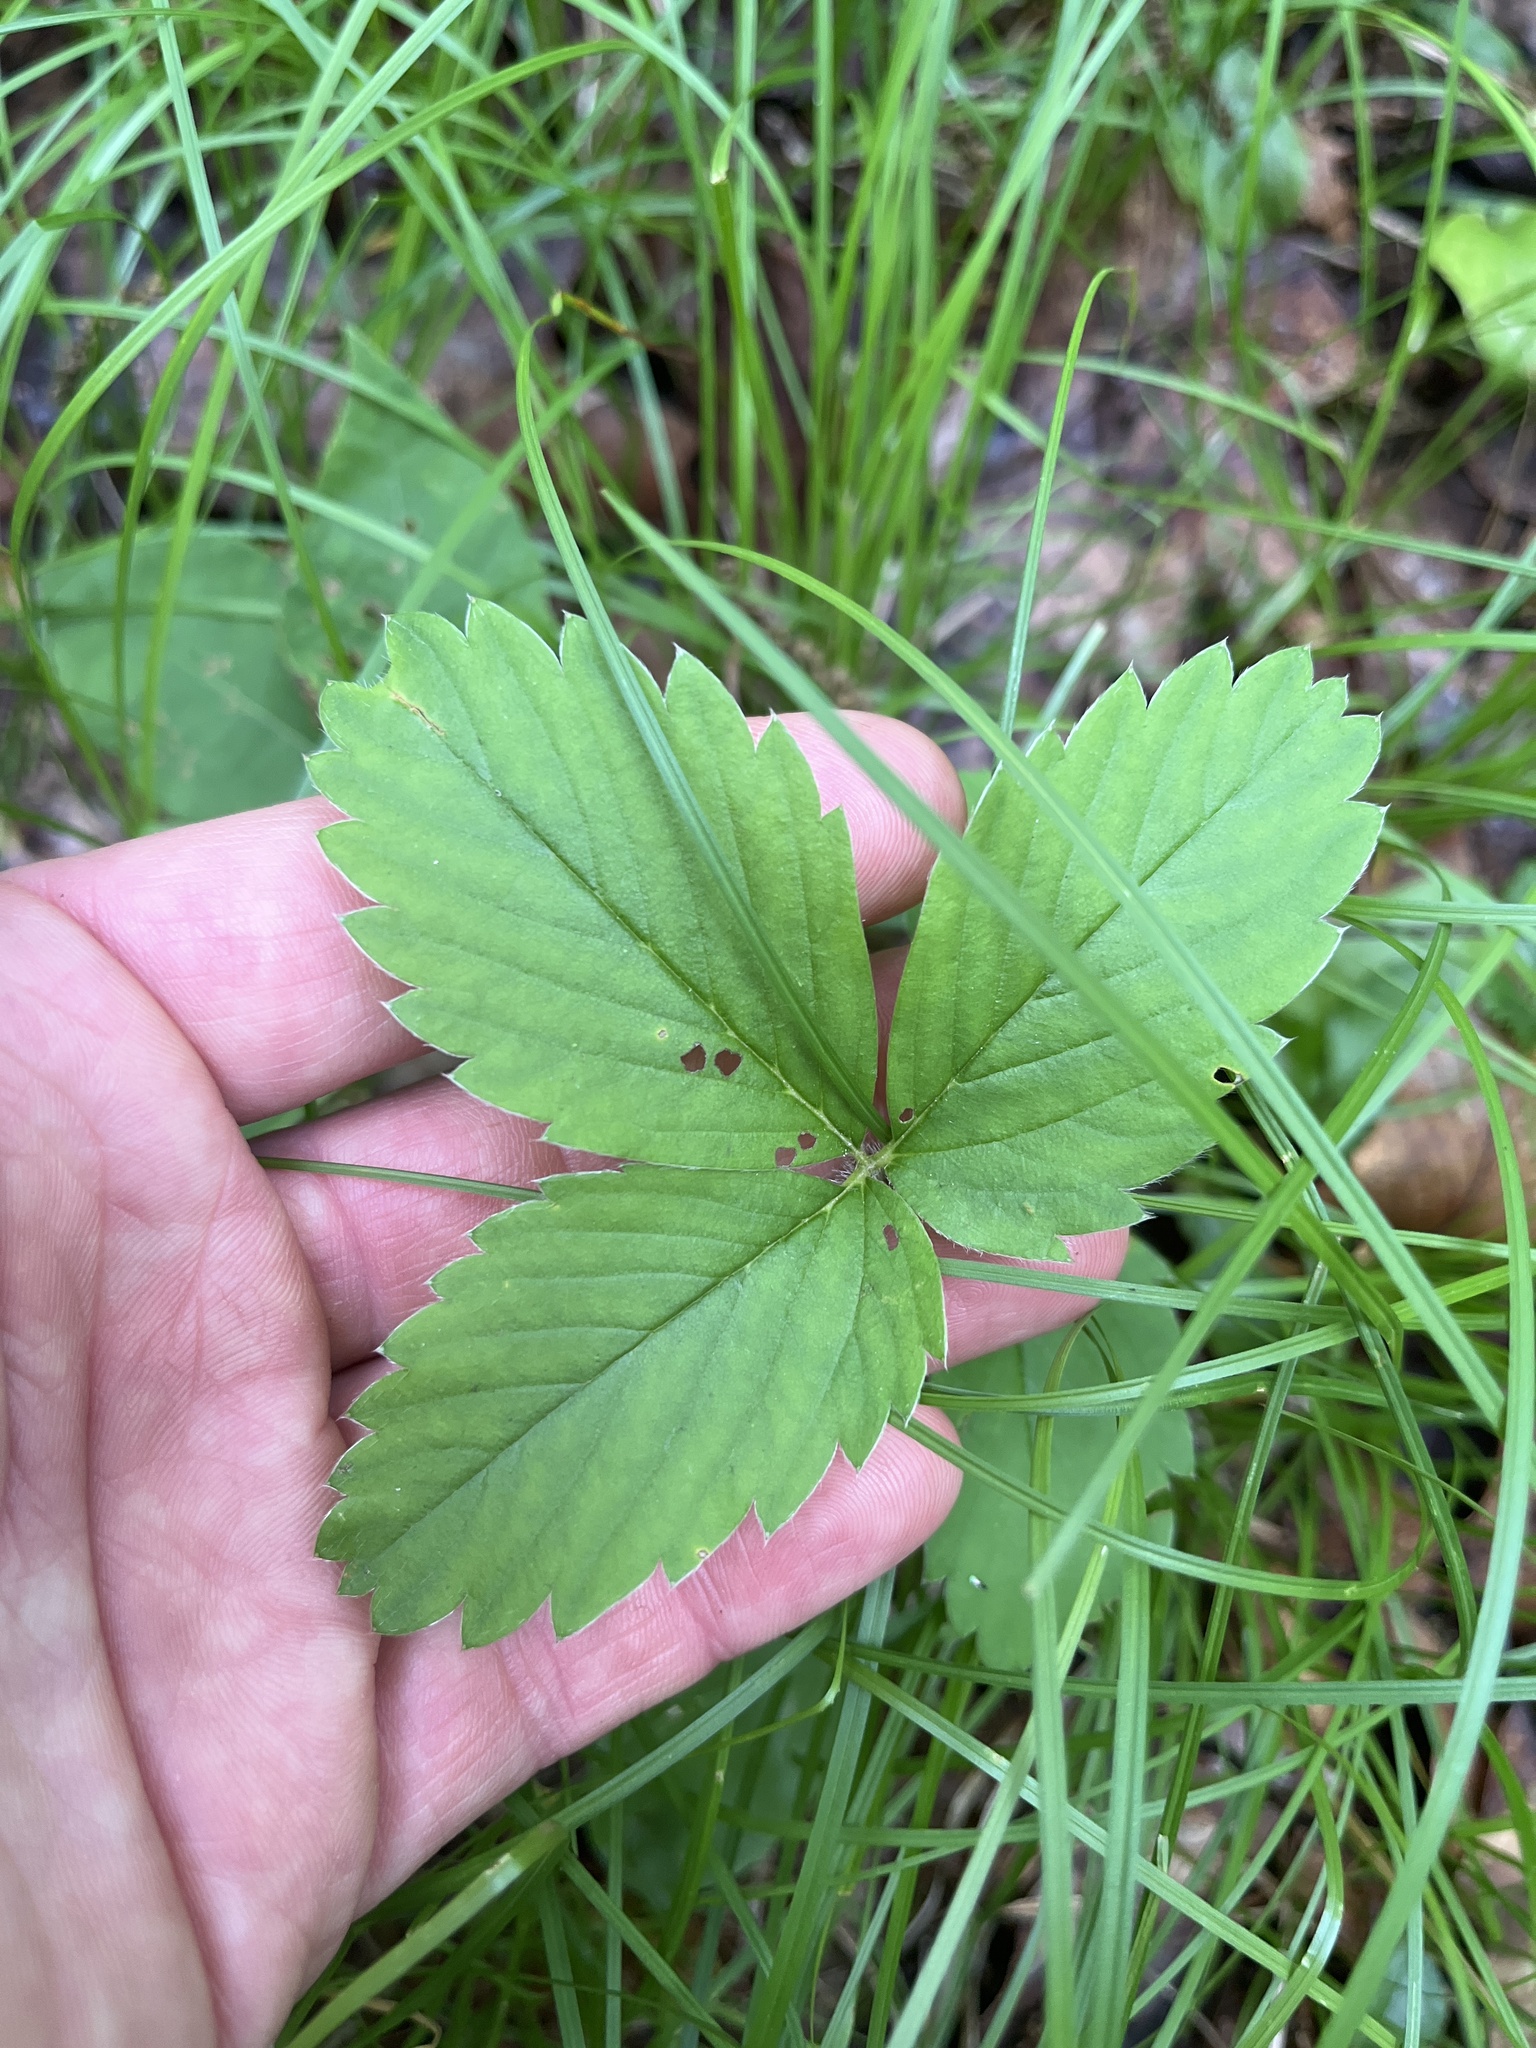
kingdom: Plantae
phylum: Tracheophyta
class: Magnoliopsida
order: Rosales
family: Rosaceae
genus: Fragaria
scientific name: Fragaria vesca
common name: Wild strawberry
